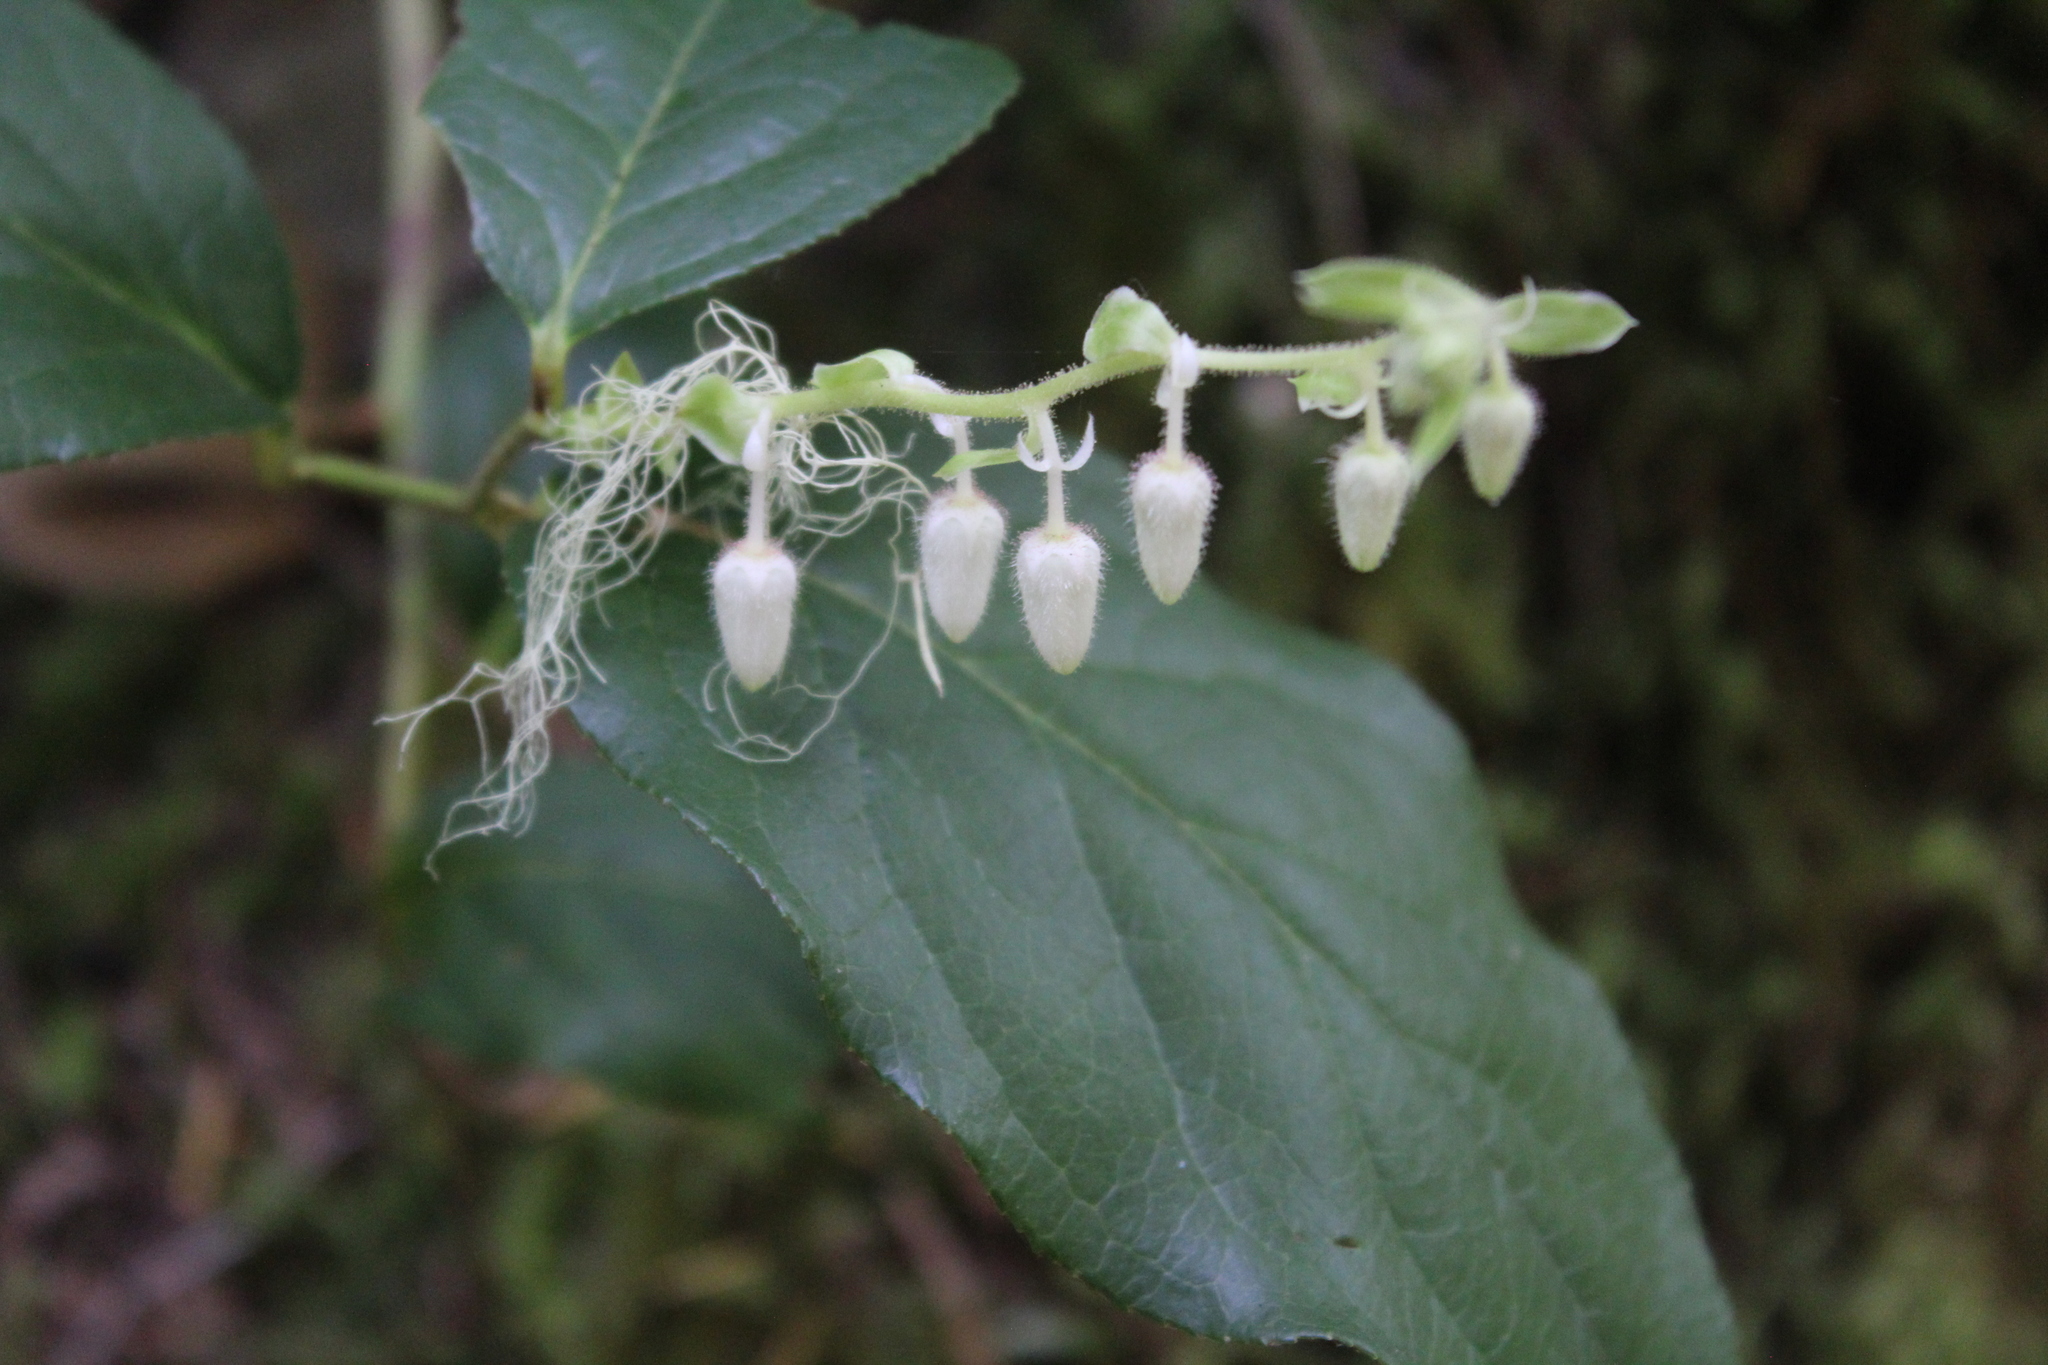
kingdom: Plantae
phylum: Tracheophyta
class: Magnoliopsida
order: Ericales
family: Ericaceae
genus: Gaultheria
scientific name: Gaultheria shallon
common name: Shallon
